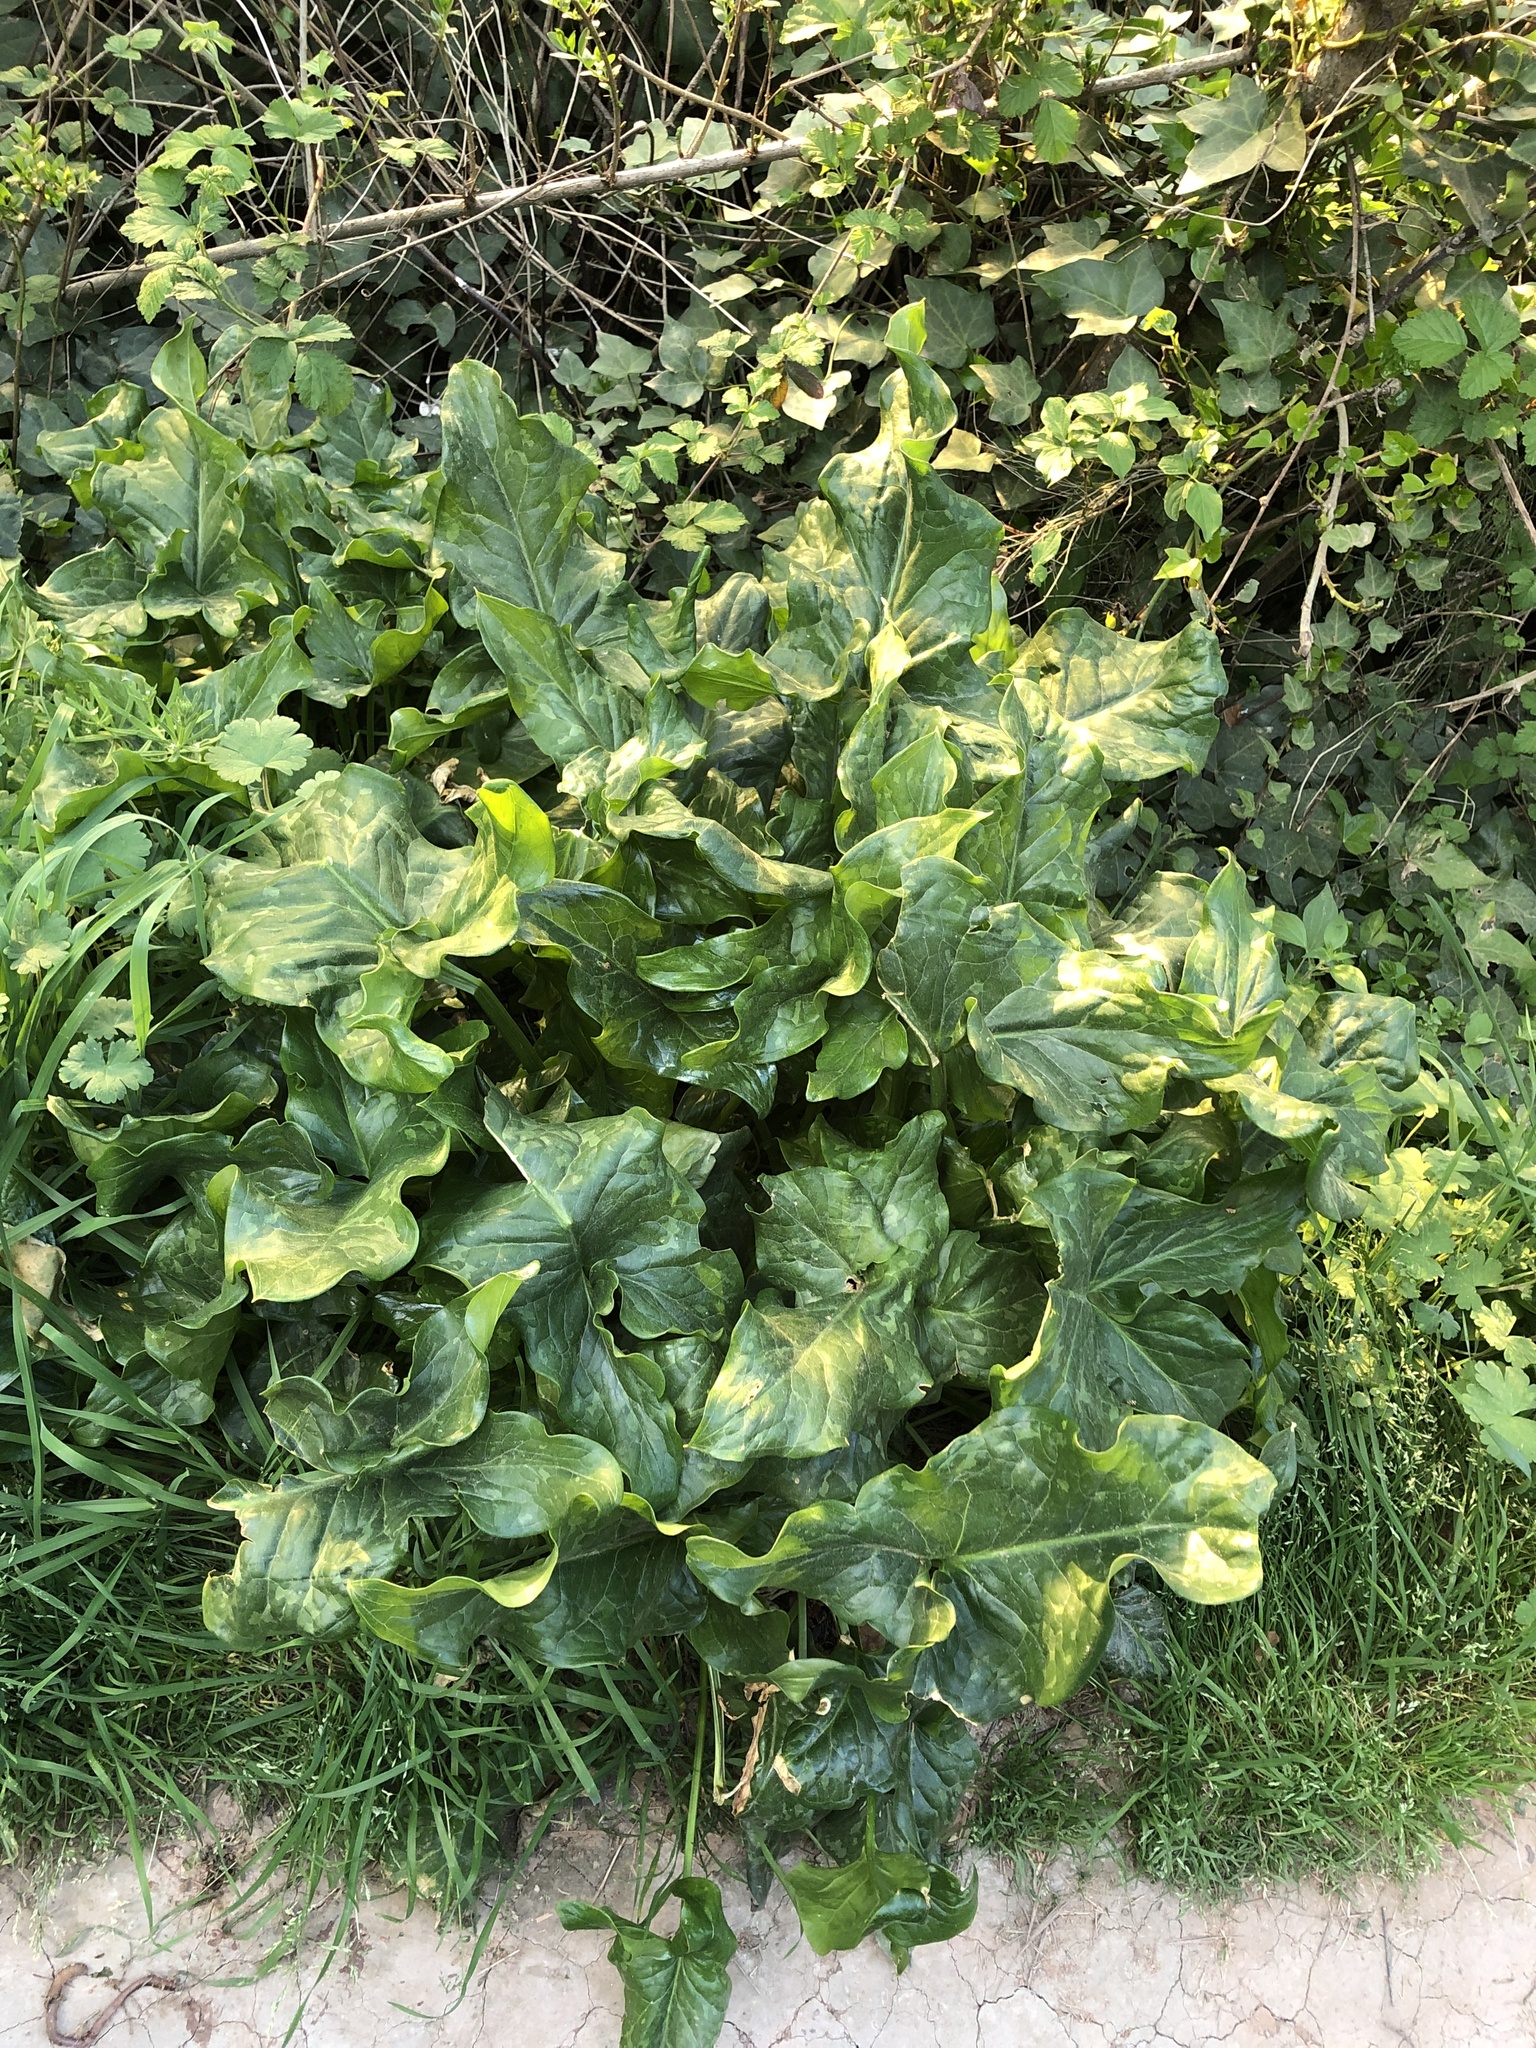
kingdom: Plantae
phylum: Tracheophyta
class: Liliopsida
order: Alismatales
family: Araceae
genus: Arum
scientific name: Arum italicum
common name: Italian lords-and-ladies
